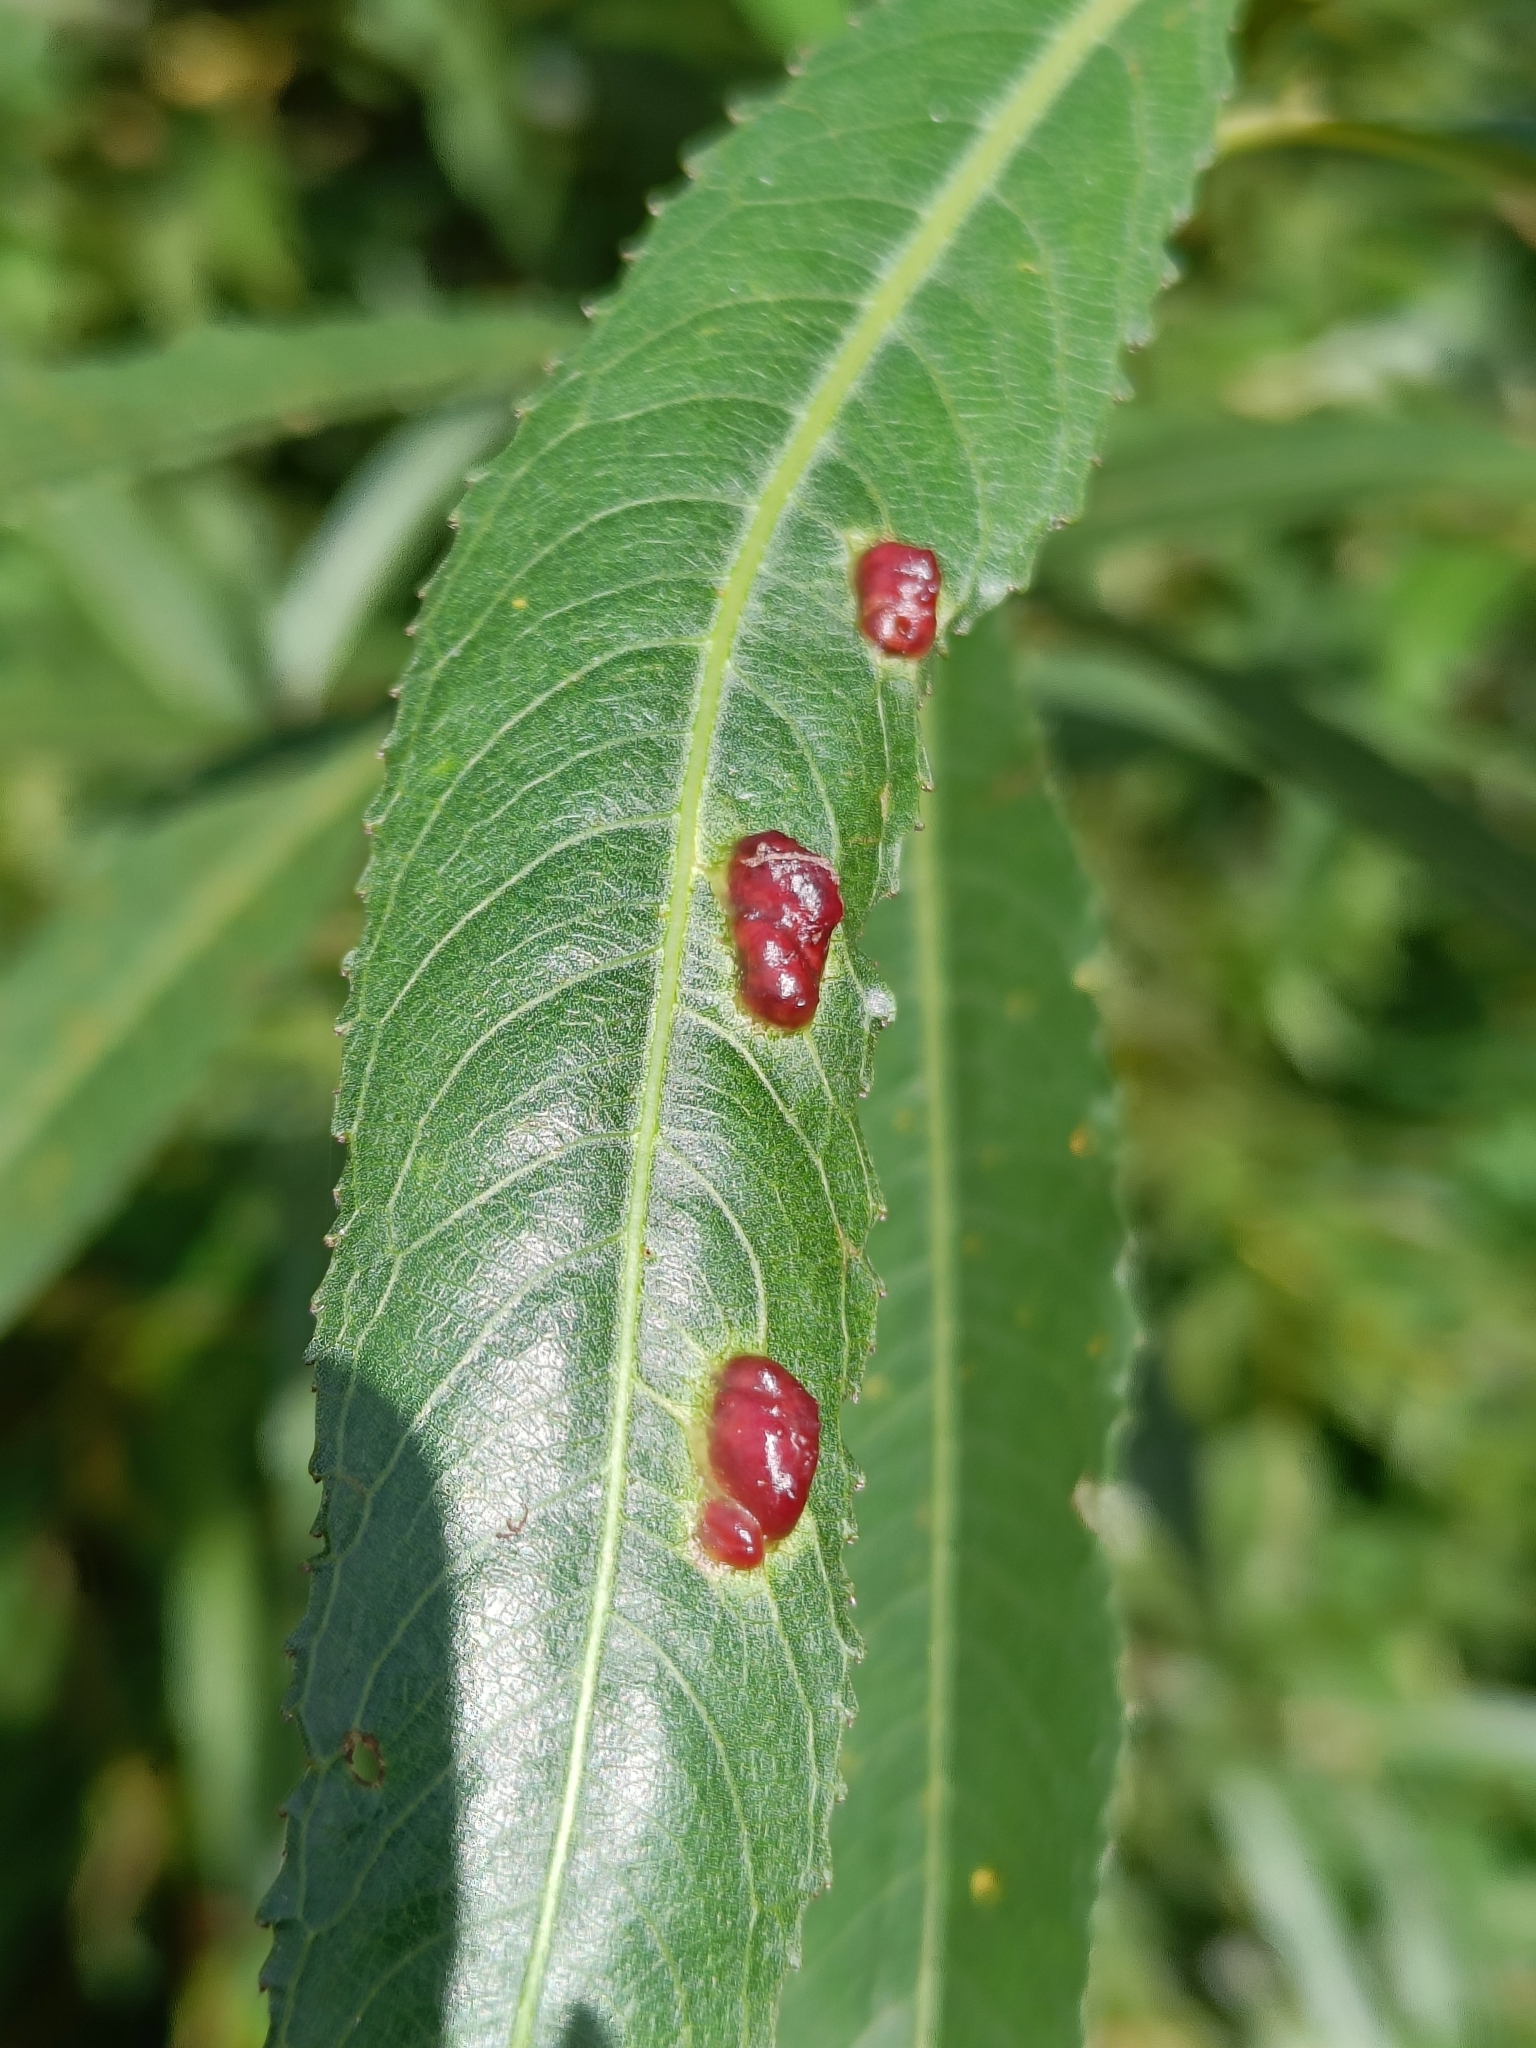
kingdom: Animalia
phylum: Arthropoda
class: Insecta
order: Hymenoptera
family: Tenthredinidae
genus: Pontania
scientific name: Pontania proxima
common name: Common sawfly
